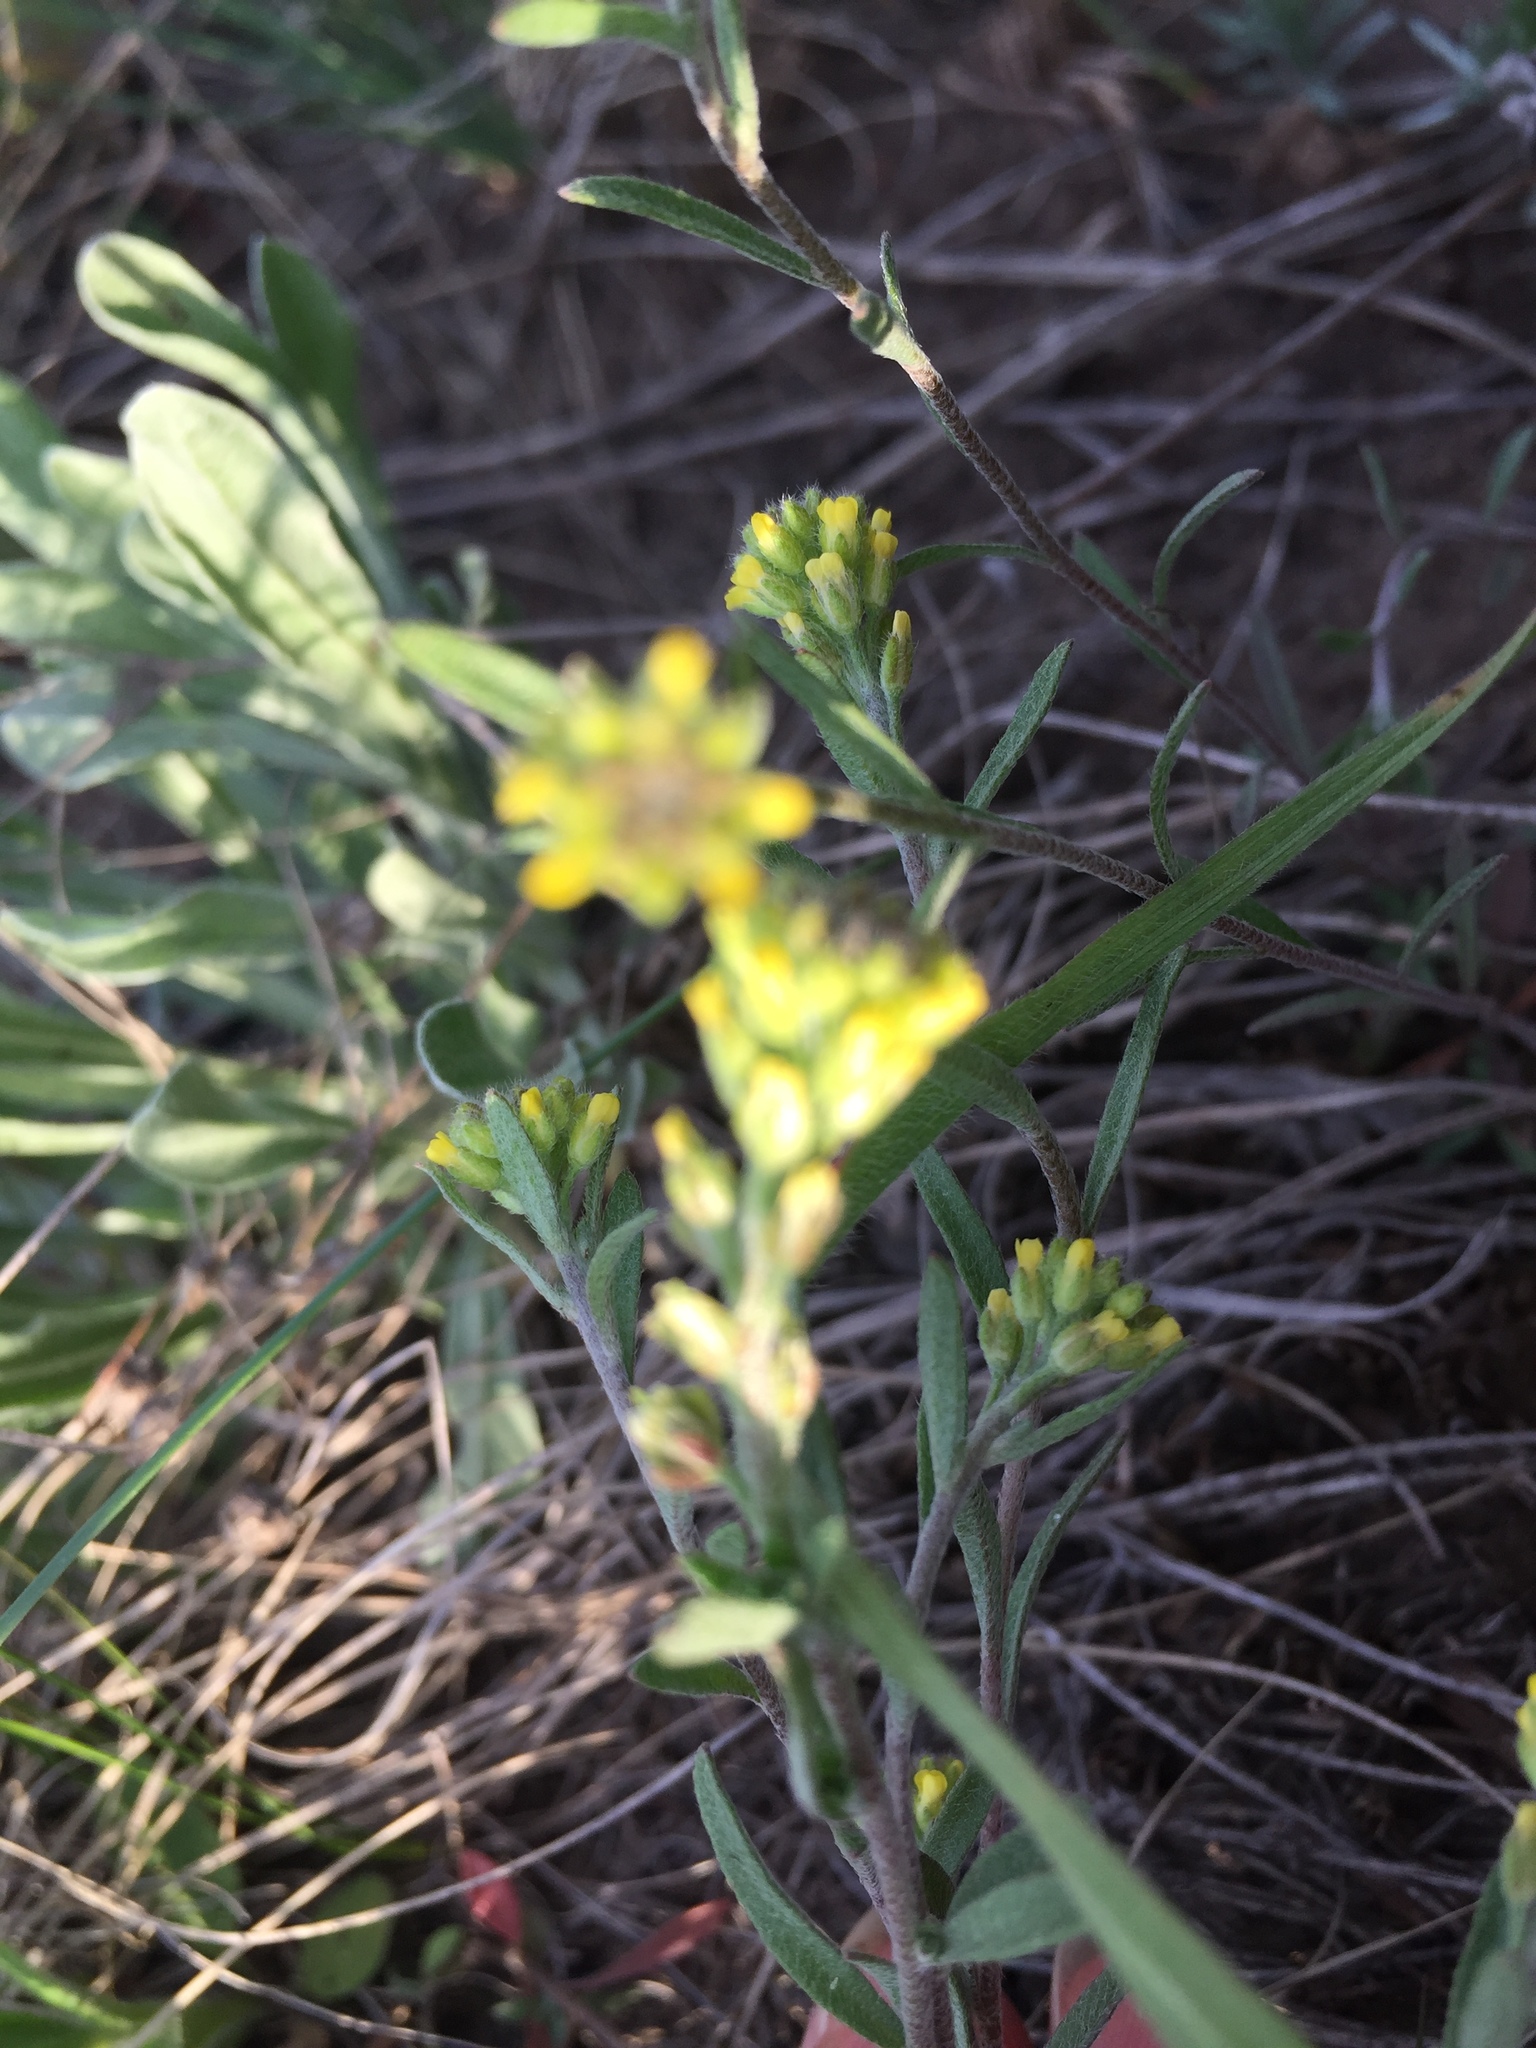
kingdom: Plantae
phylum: Tracheophyta
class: Magnoliopsida
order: Brassicales
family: Brassicaceae
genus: Alyssum
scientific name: Alyssum turkestanicum
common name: Desert alyssum
